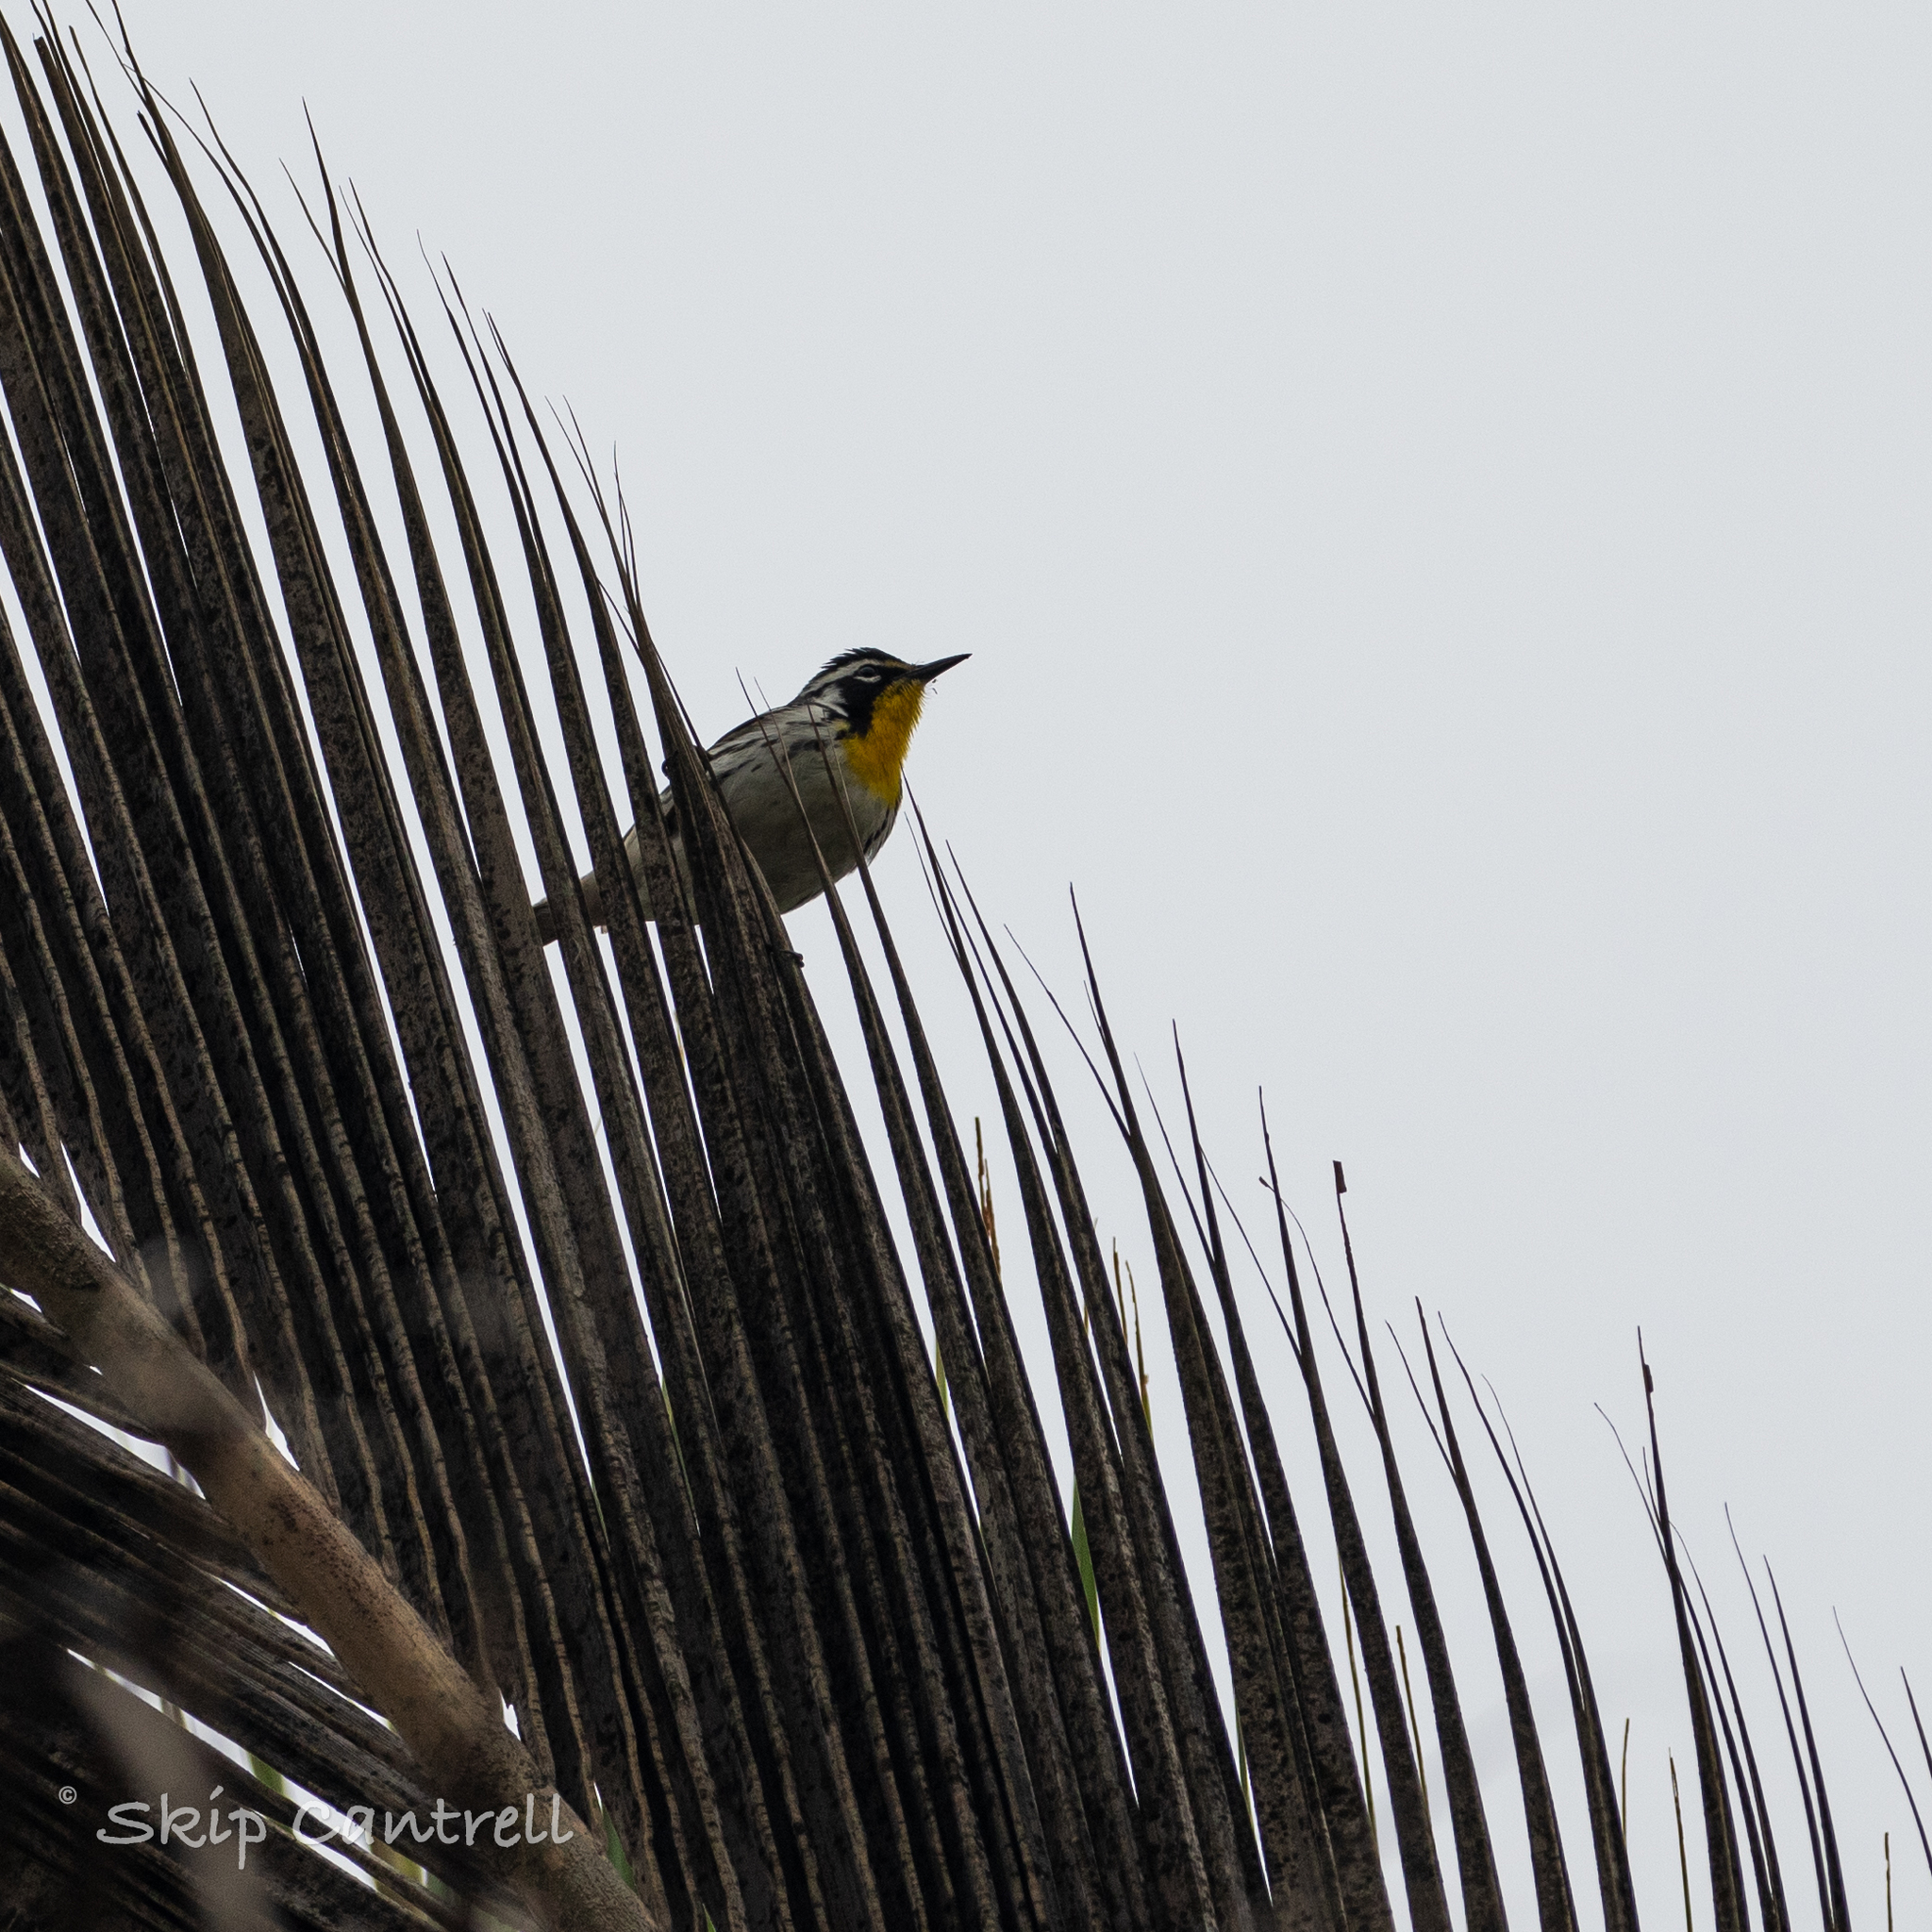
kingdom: Animalia
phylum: Chordata
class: Aves
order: Passeriformes
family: Parulidae
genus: Setophaga
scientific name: Setophaga dominica
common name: Yellow-throated warbler
